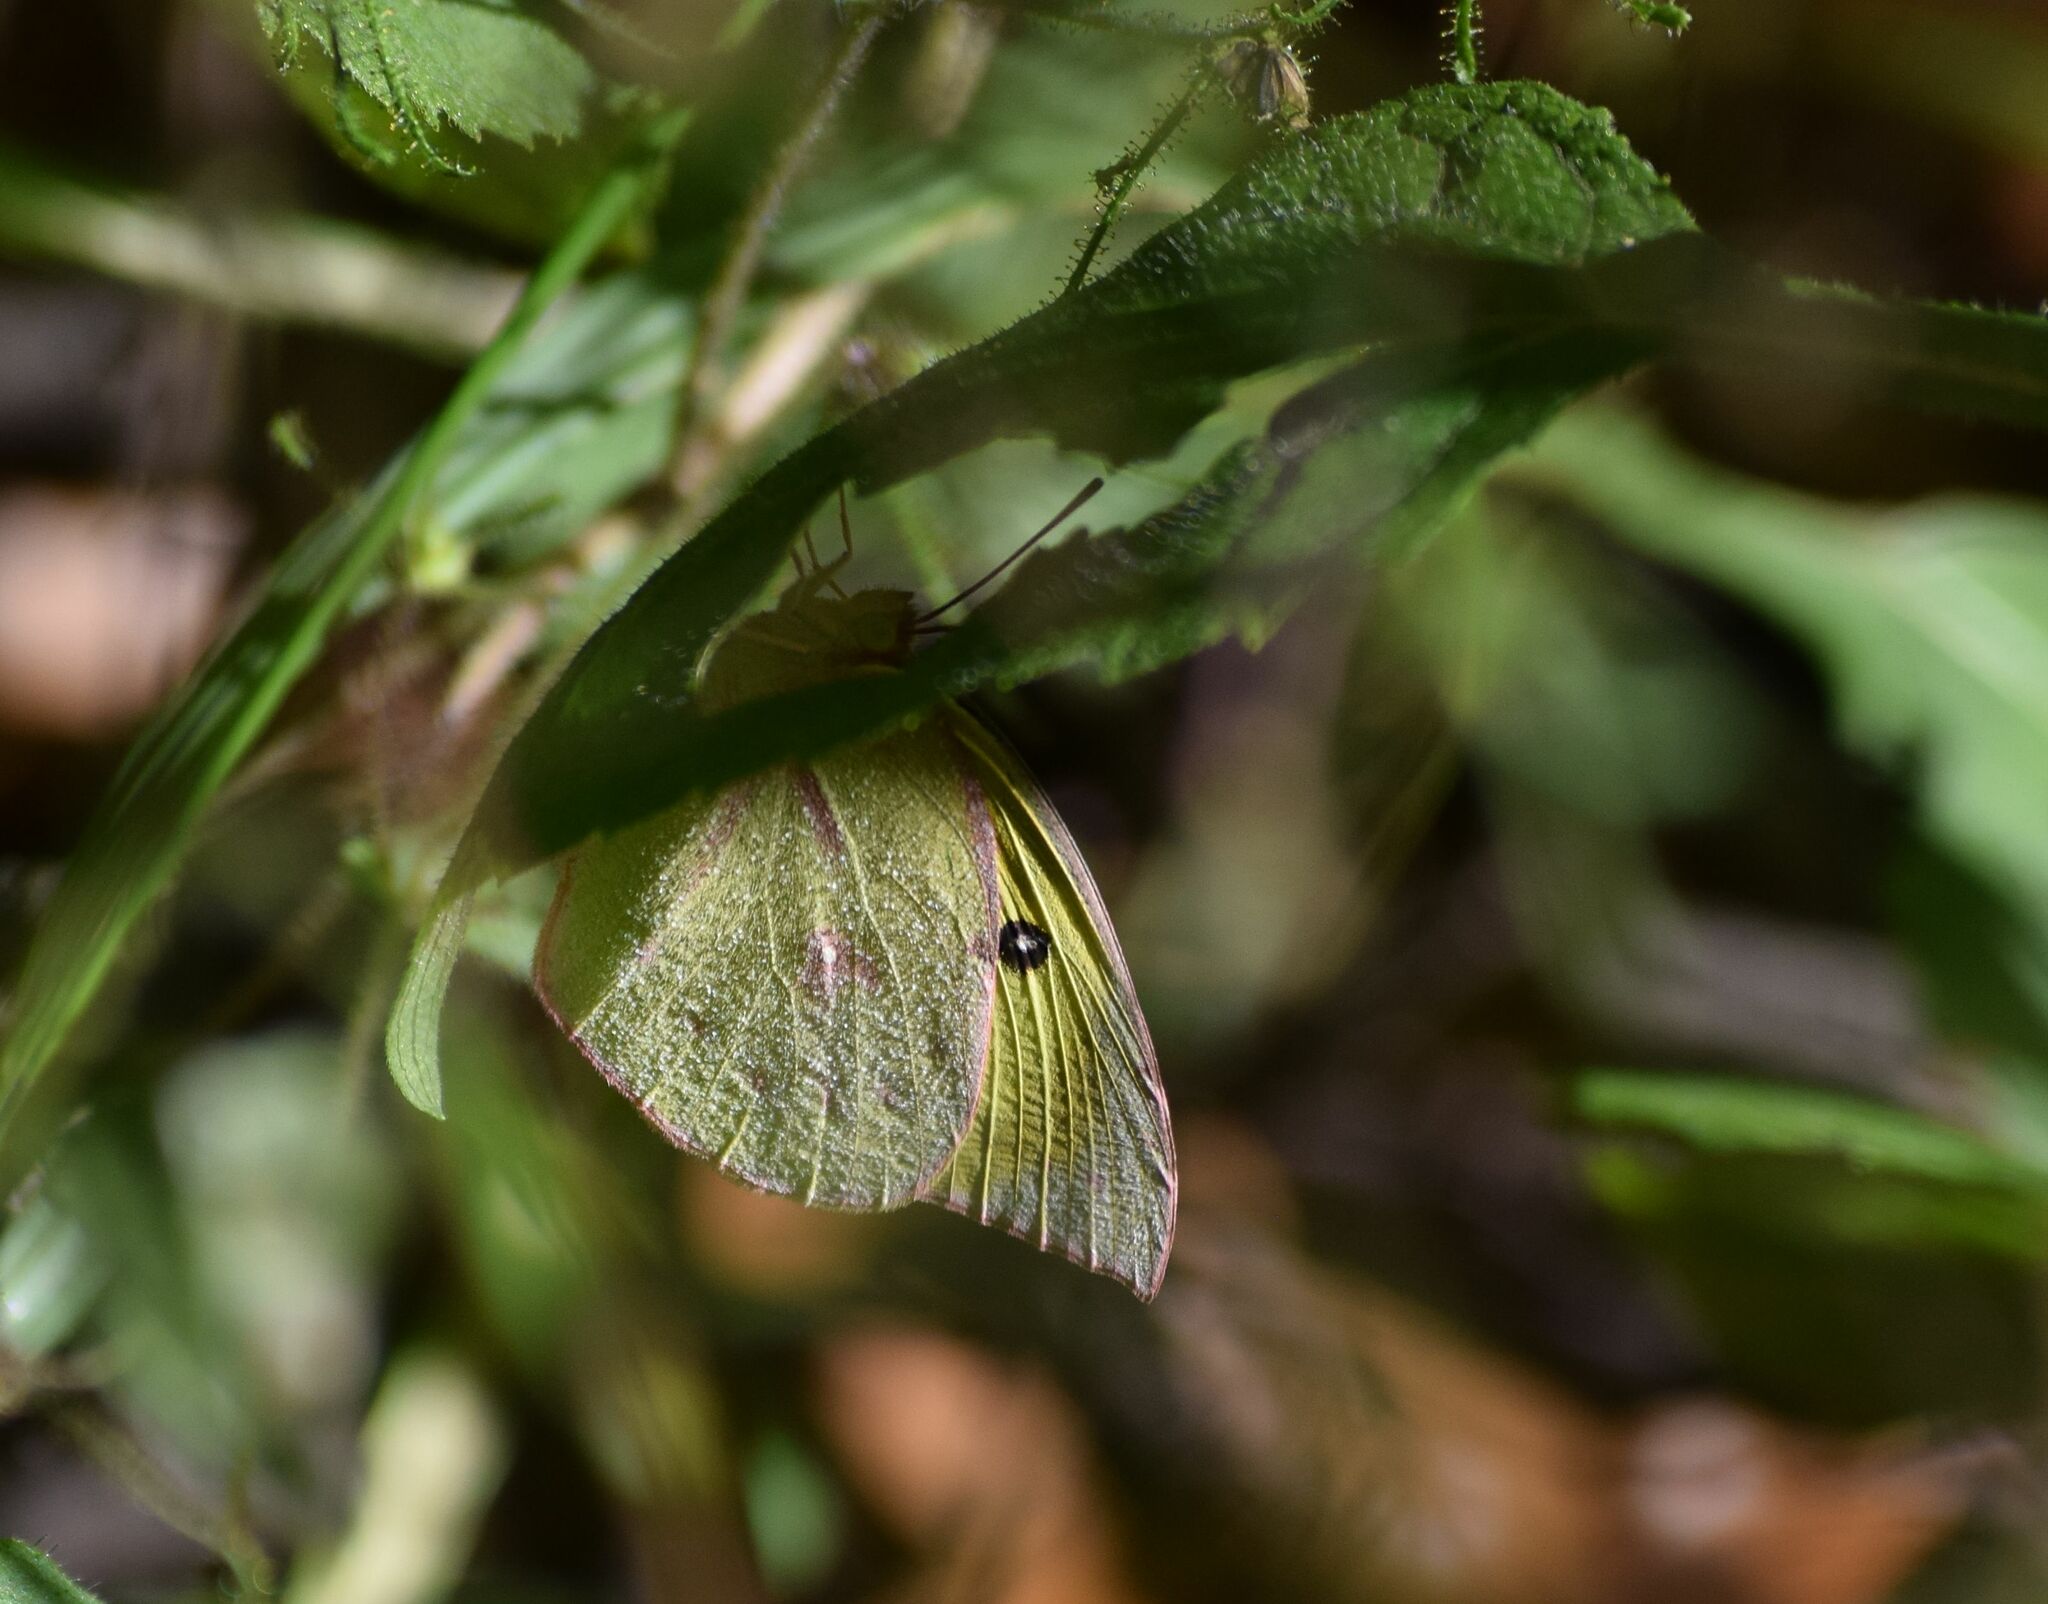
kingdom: Animalia
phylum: Arthropoda
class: Insecta
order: Lepidoptera
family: Pieridae
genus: Zerene
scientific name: Zerene cesonia
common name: Southern dogface
